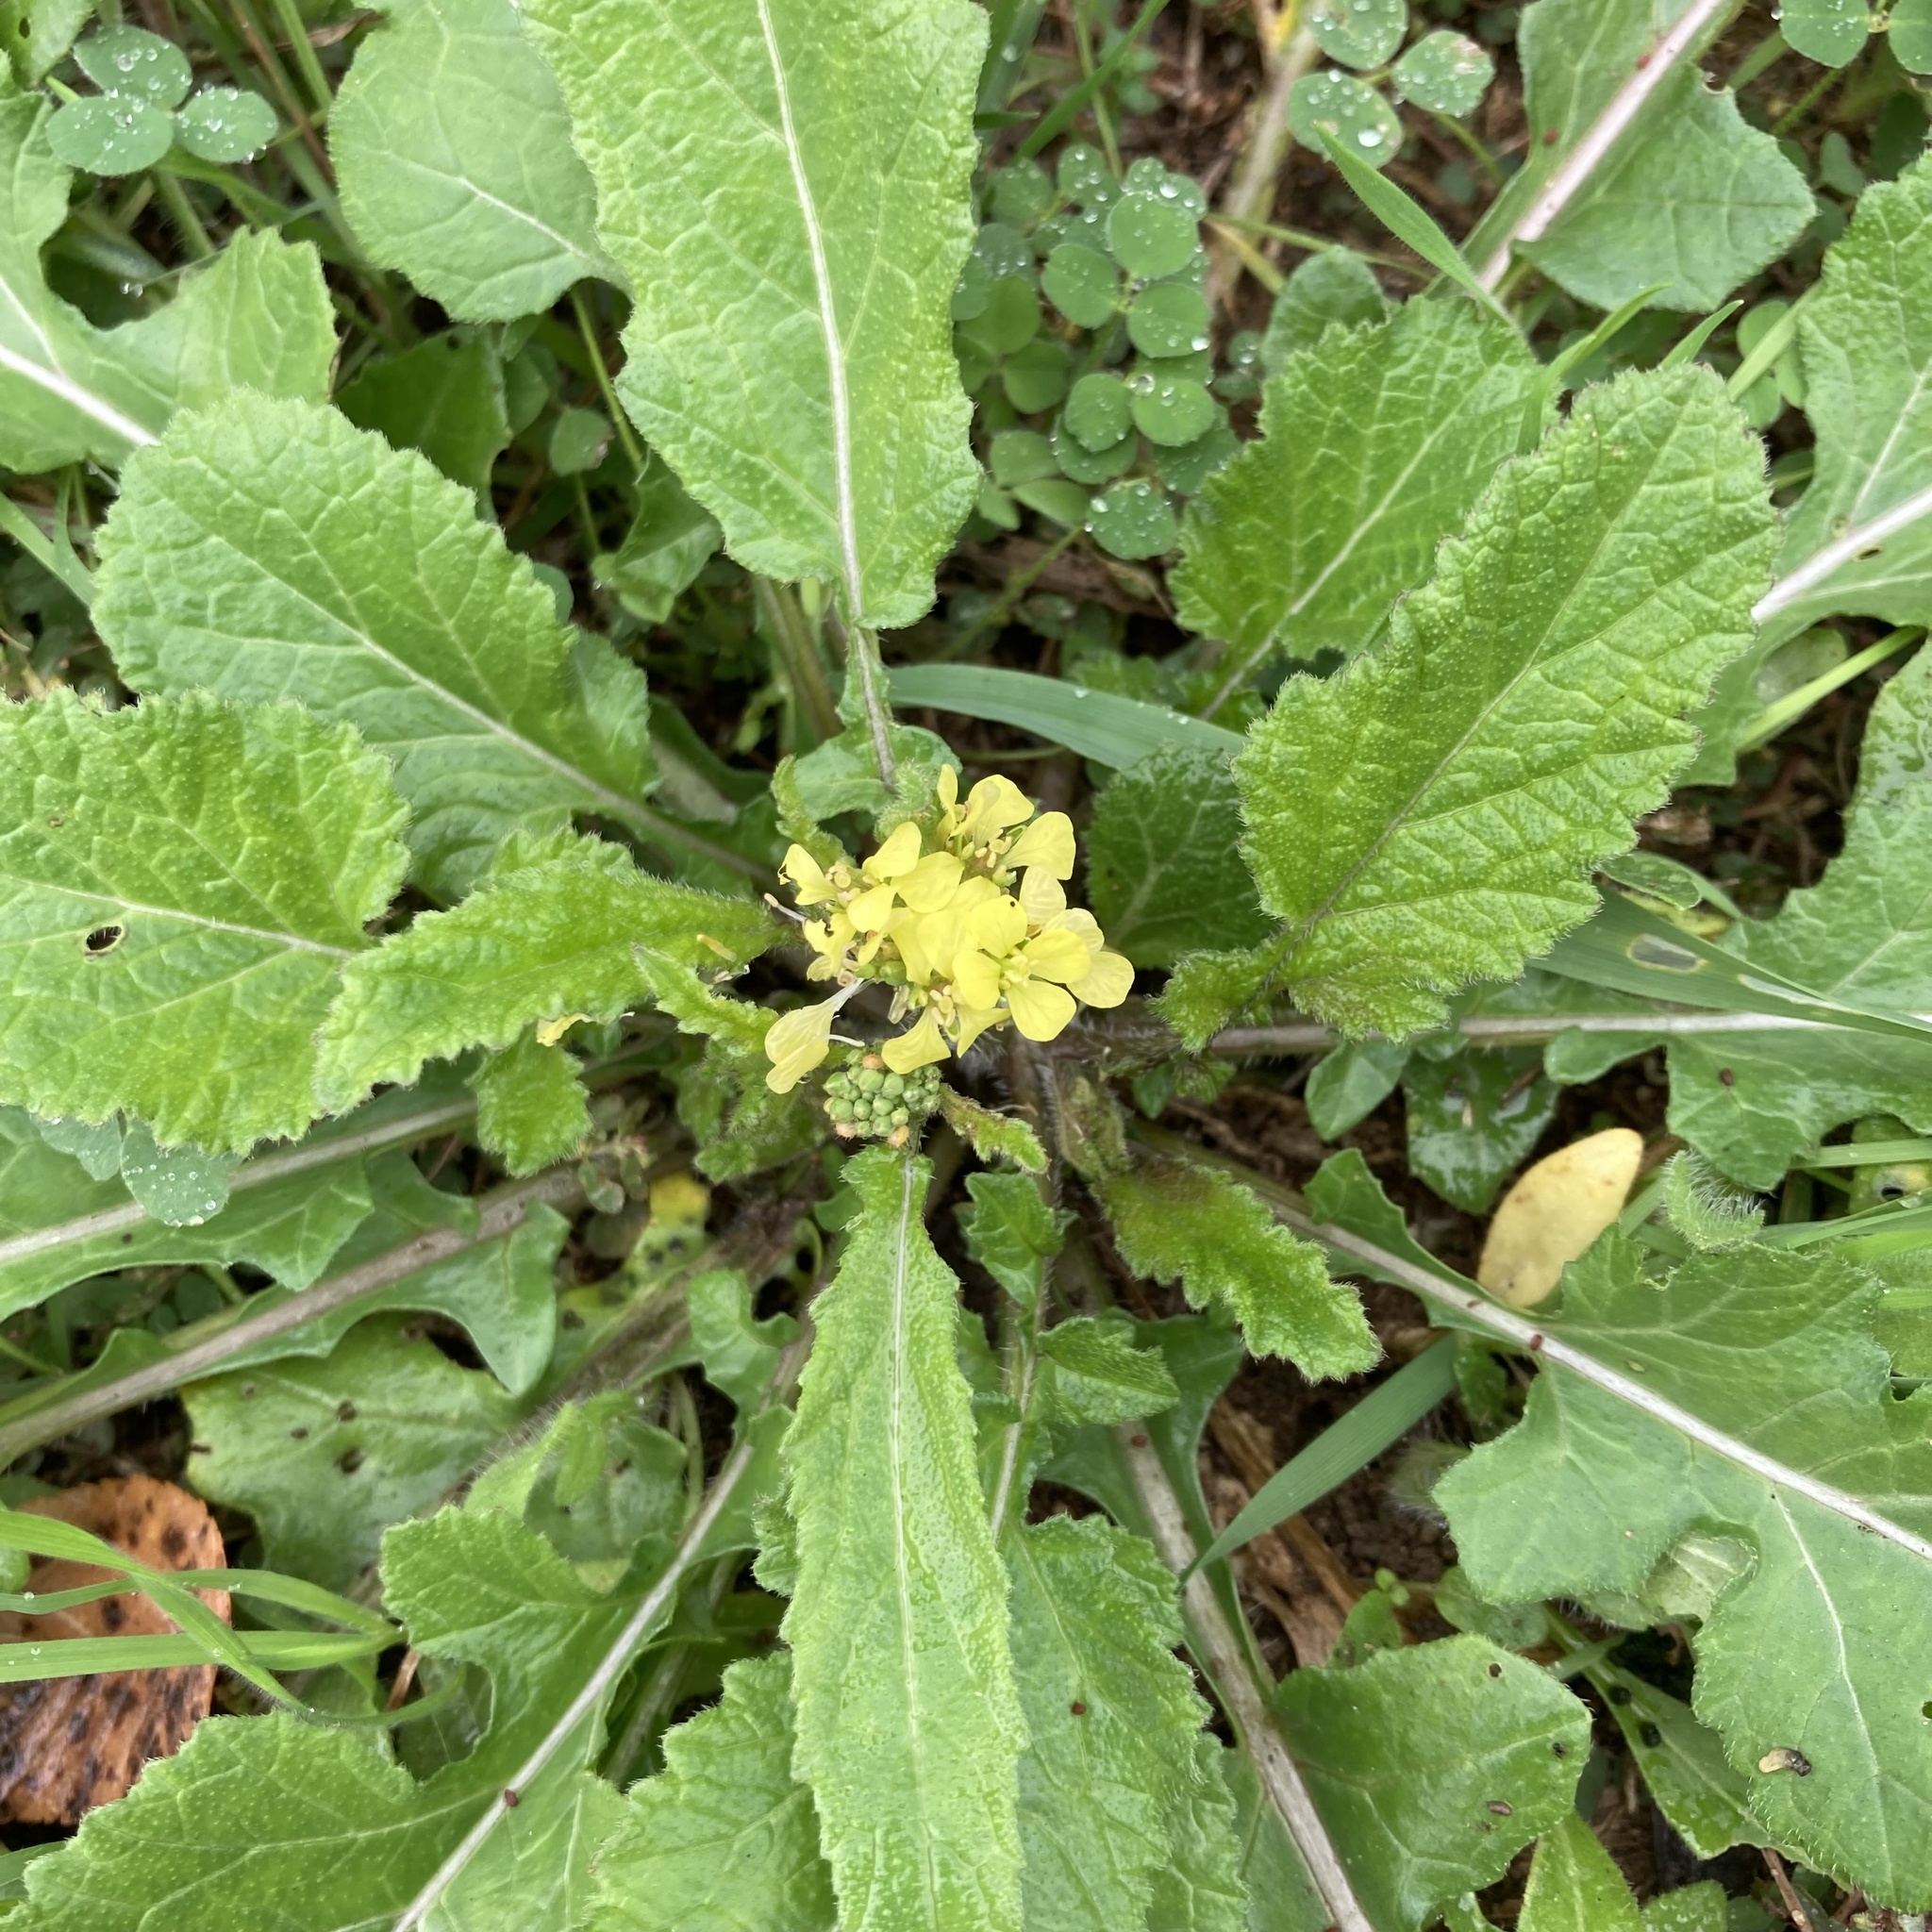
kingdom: Plantae
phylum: Tracheophyta
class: Magnoliopsida
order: Brassicales
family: Brassicaceae
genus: Rapistrum
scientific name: Rapistrum rugosum
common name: Annual bastardcabbage
